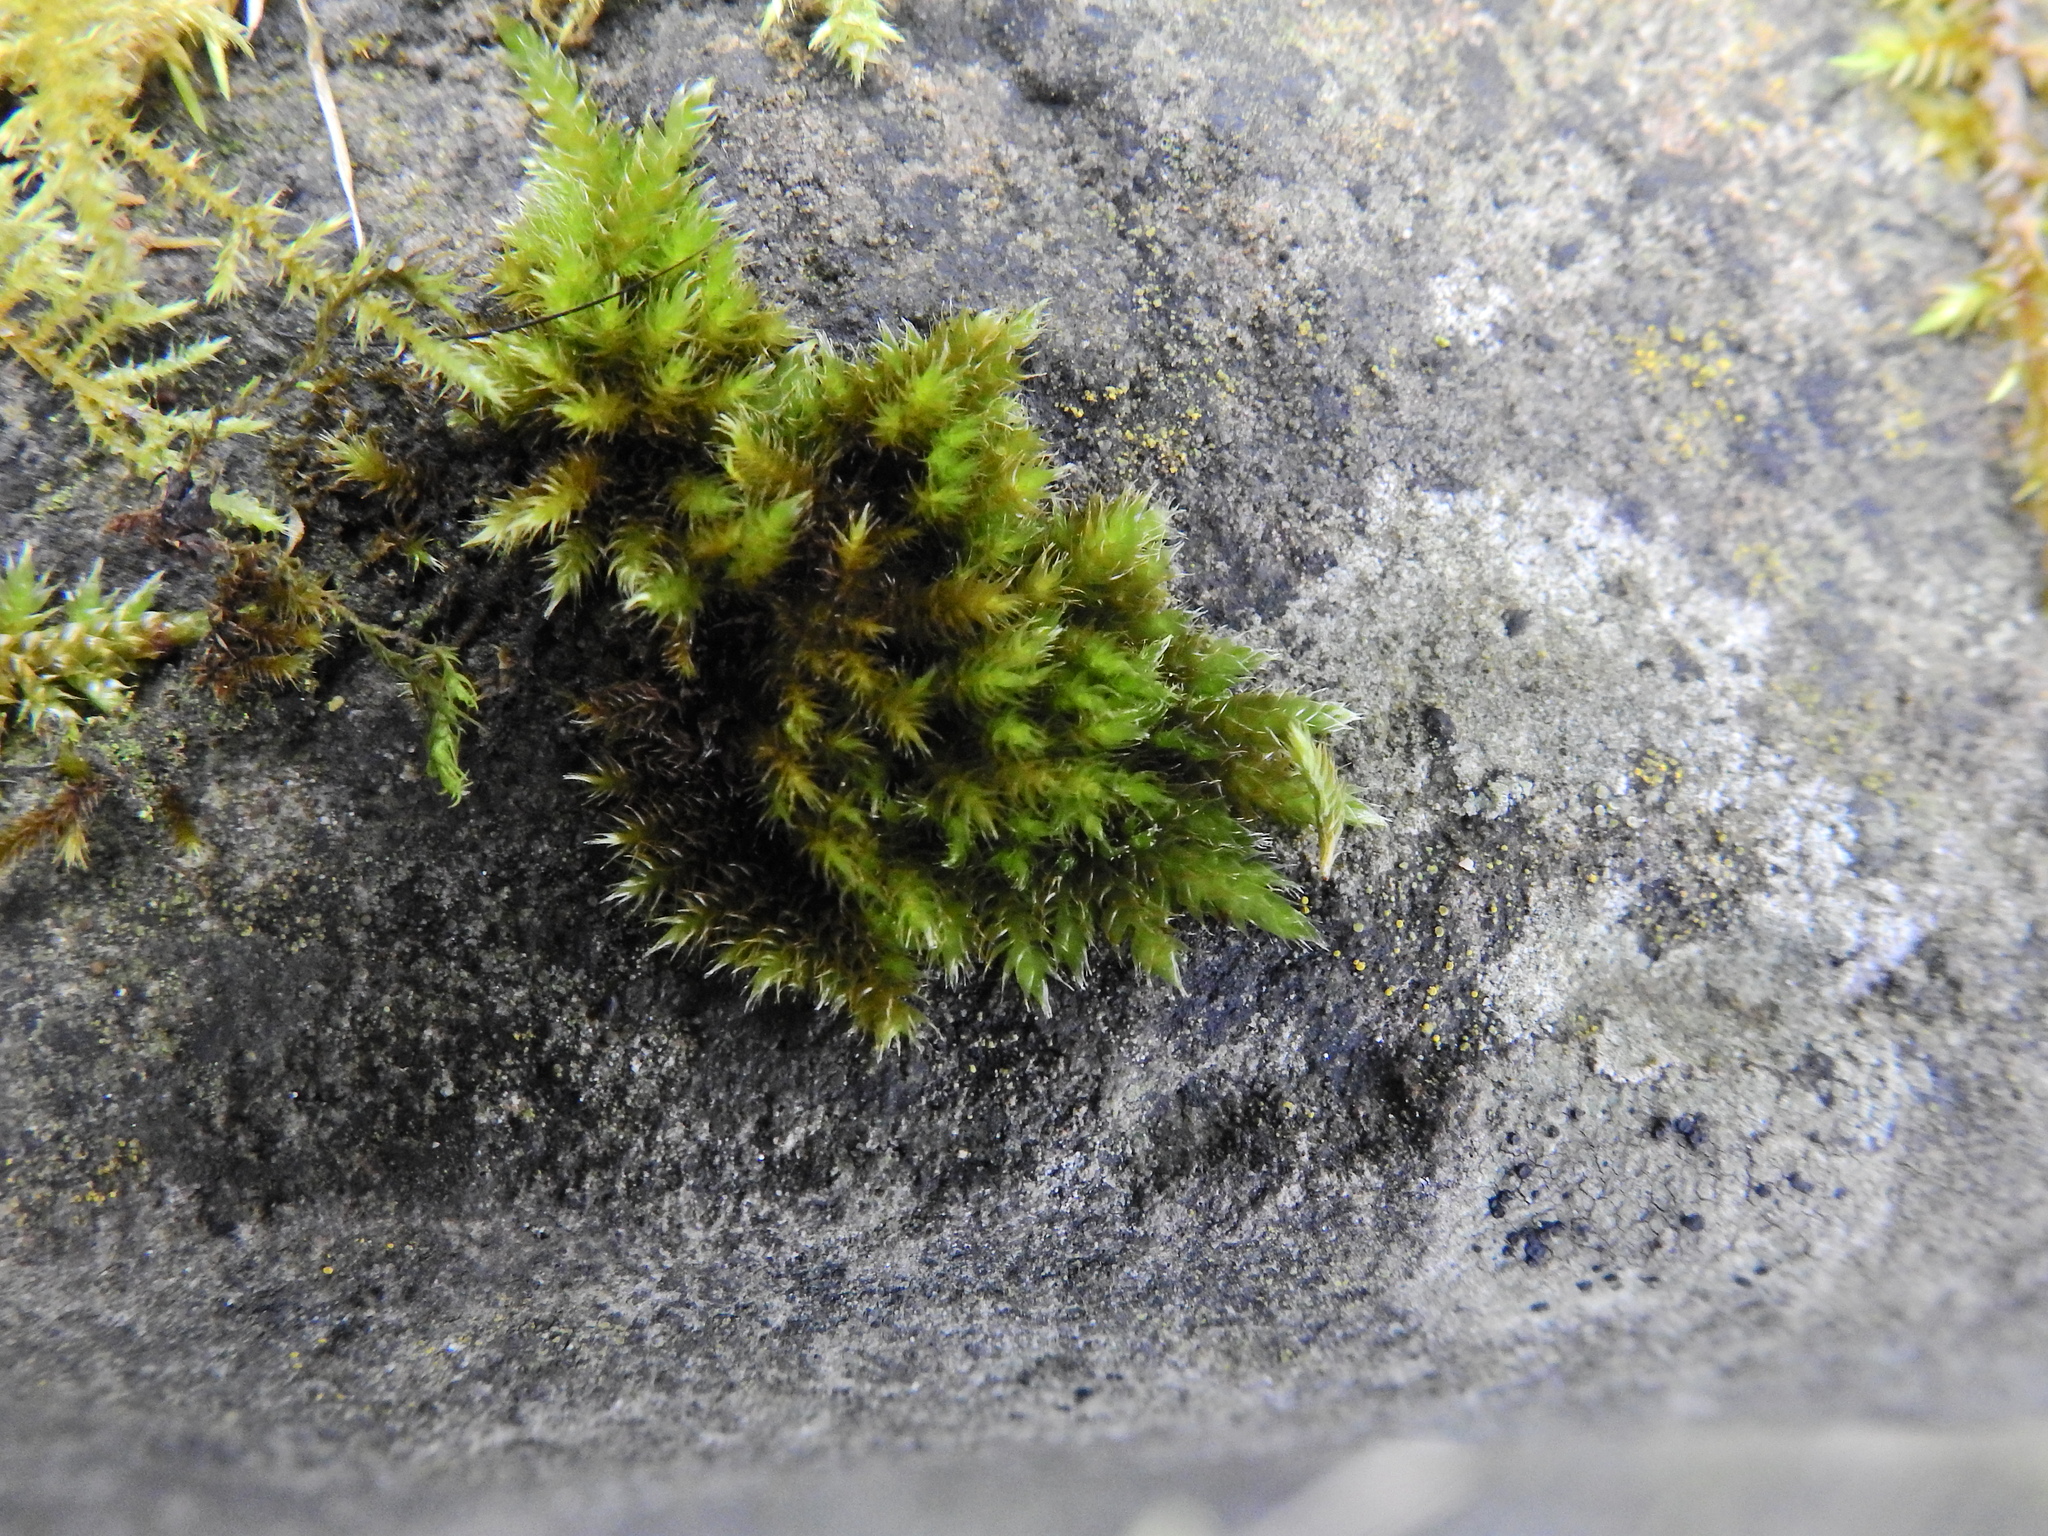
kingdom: Plantae
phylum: Bryophyta
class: Bryopsida
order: Hypnales
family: Brachytheciaceae
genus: Homalothecium
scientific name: Homalothecium sericeum
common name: Silky wall feather-moss
